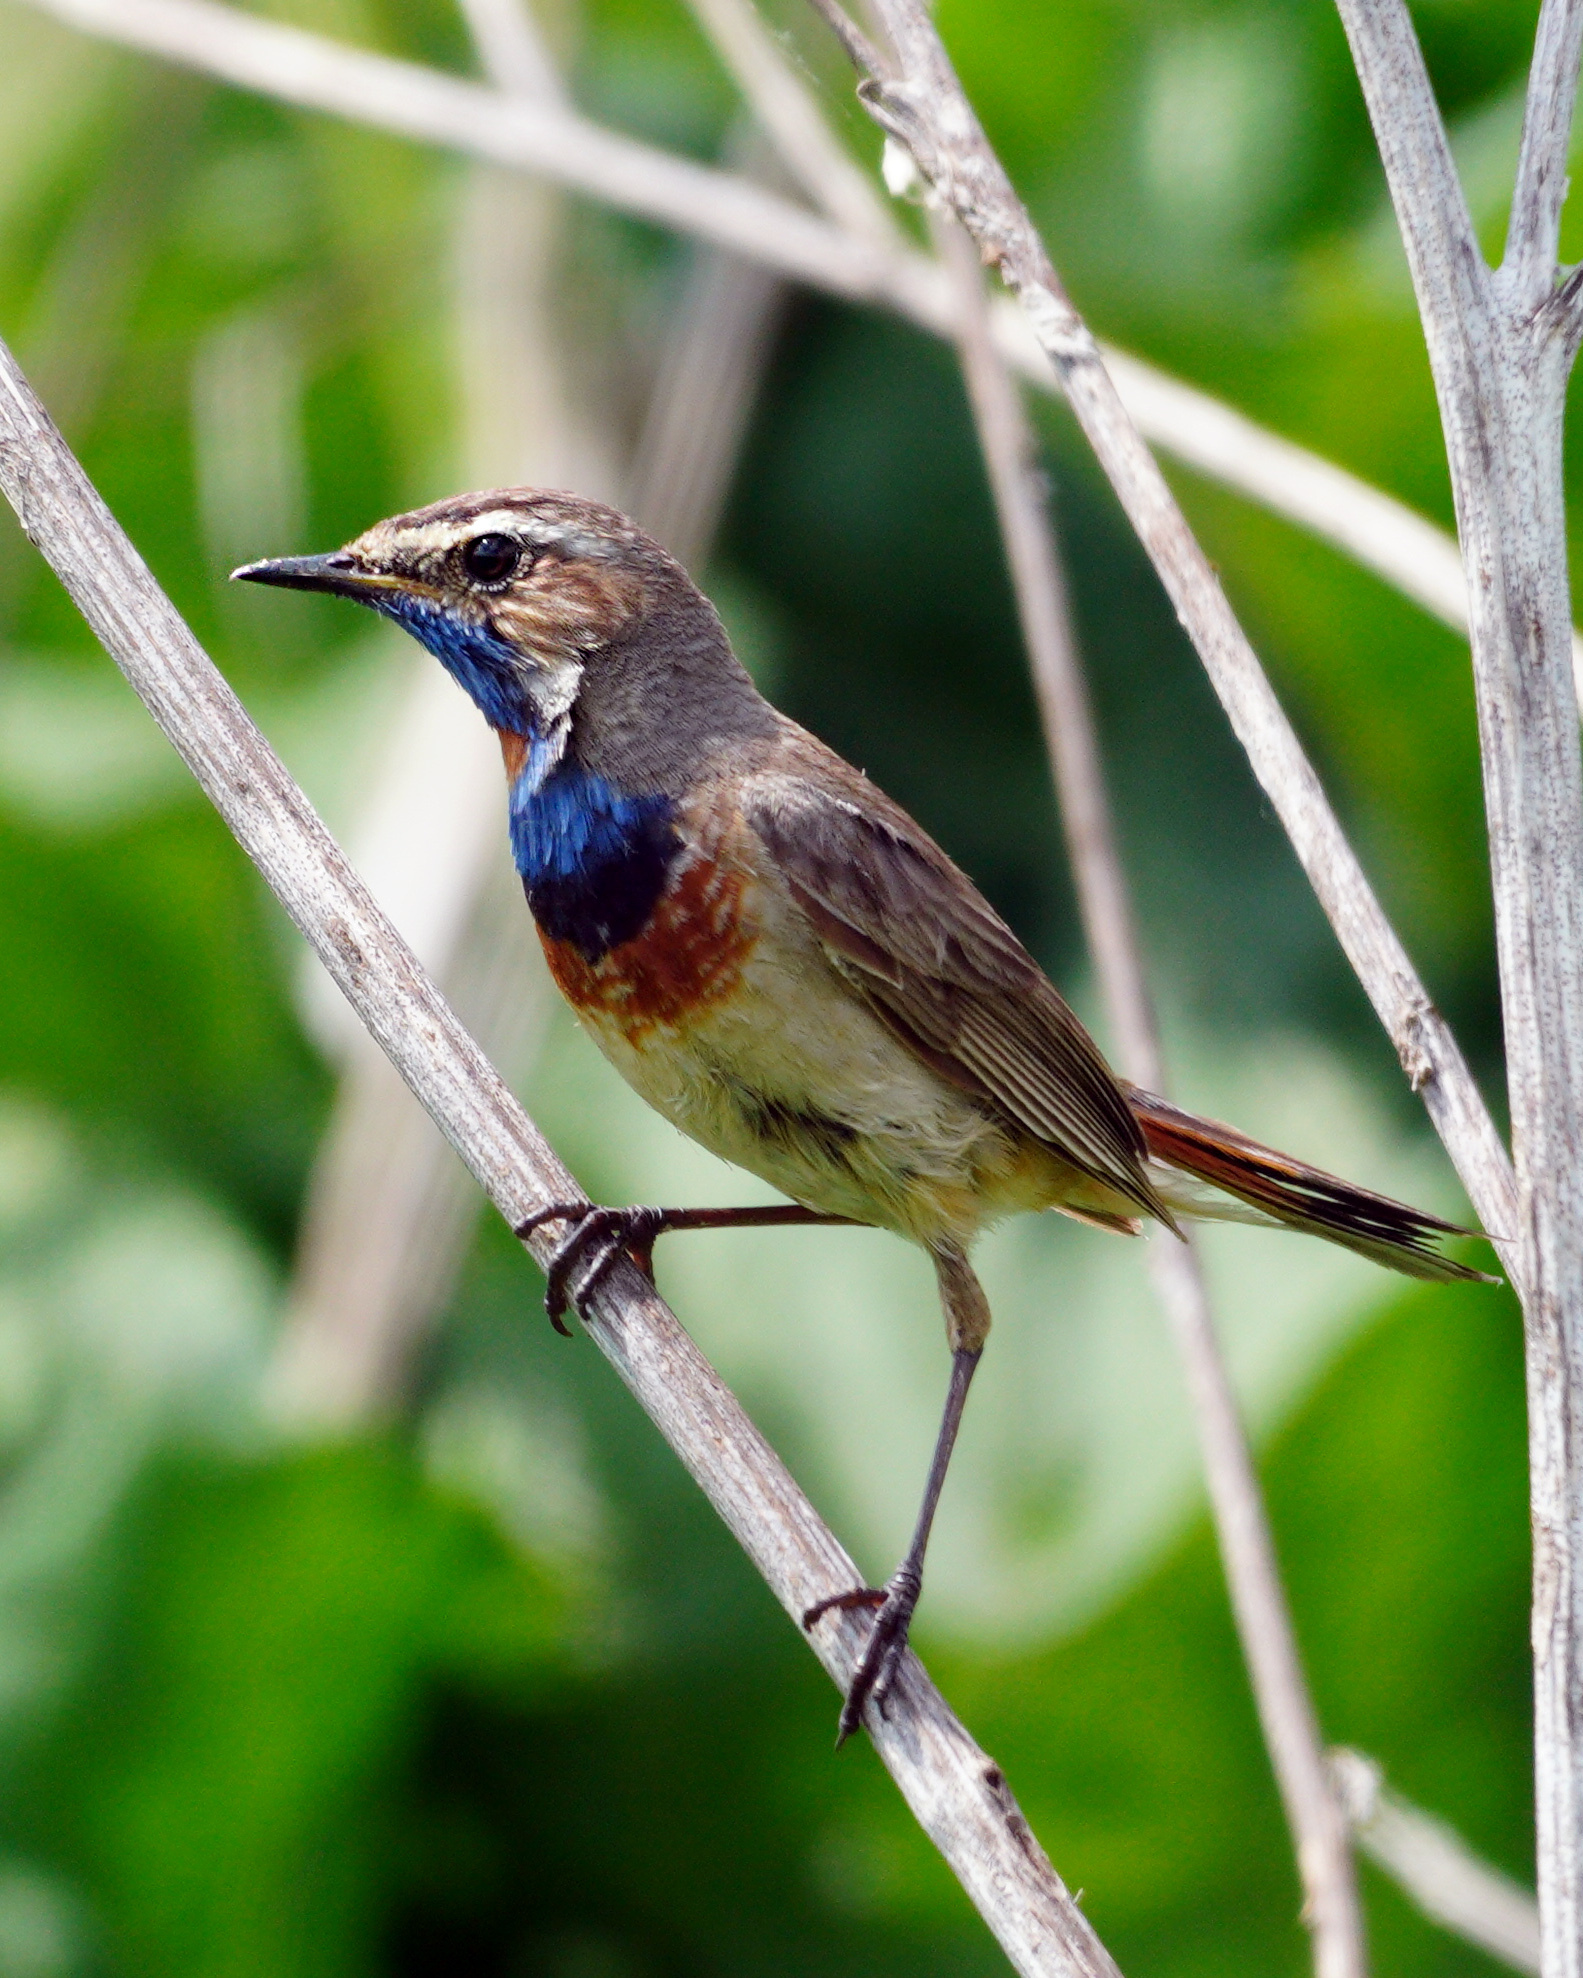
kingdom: Animalia
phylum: Chordata
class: Aves
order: Passeriformes
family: Muscicapidae
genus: Luscinia
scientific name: Luscinia svecica
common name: Bluethroat
